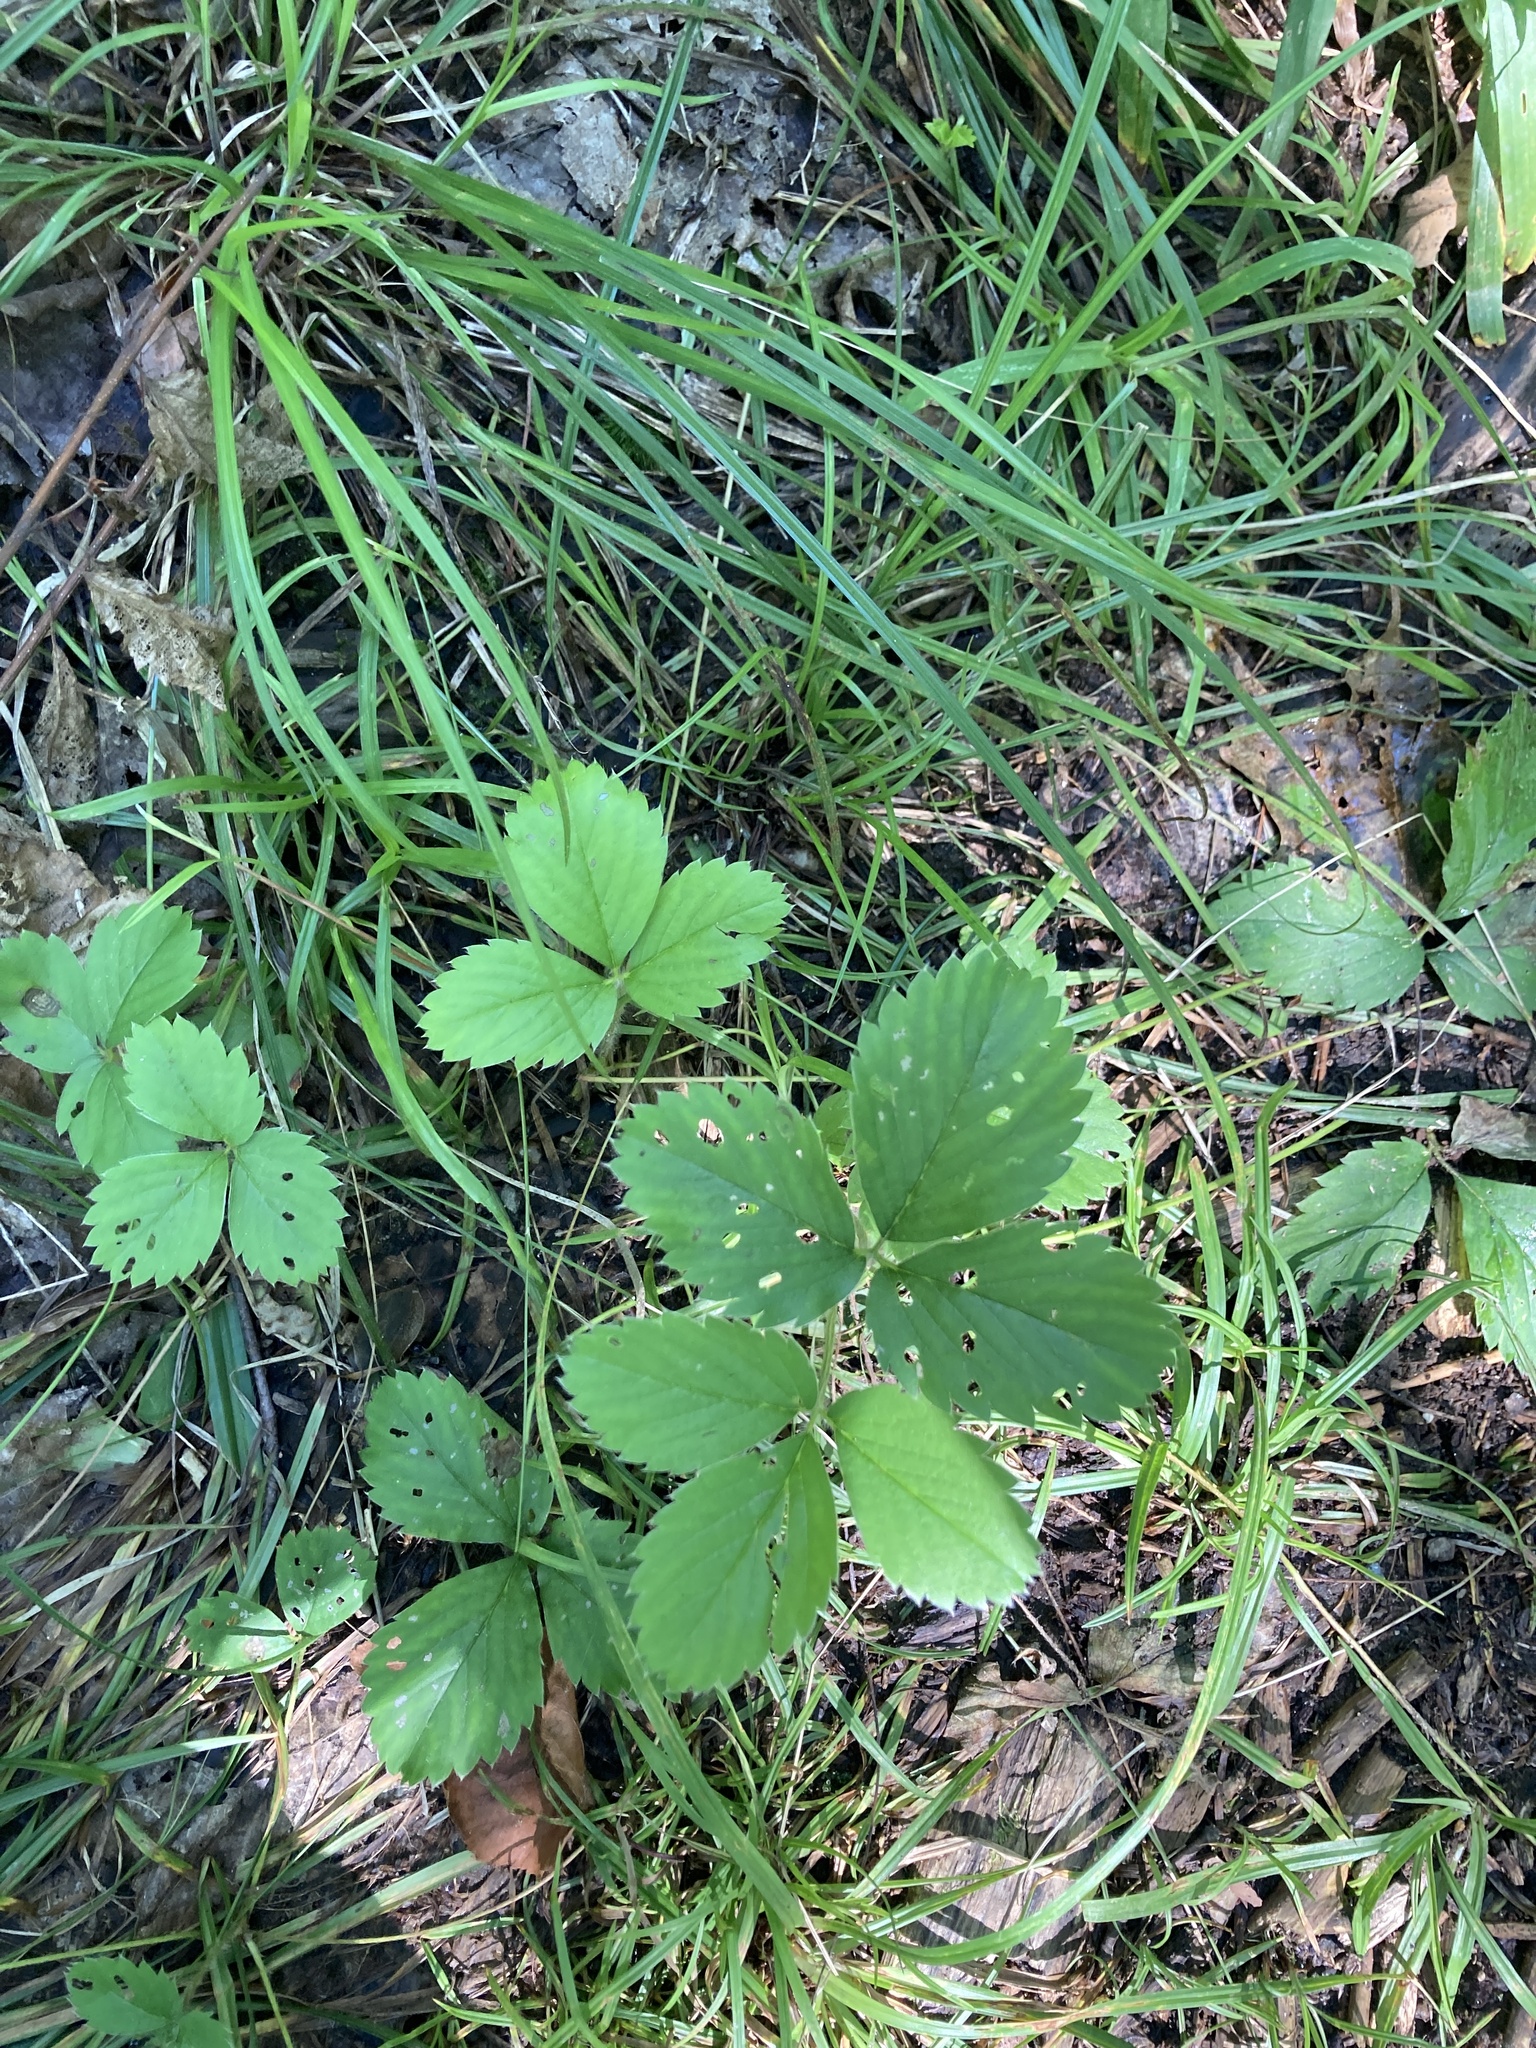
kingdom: Plantae
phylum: Tracheophyta
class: Magnoliopsida
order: Rosales
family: Rosaceae
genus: Fragaria
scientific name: Fragaria virginiana
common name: Thickleaved wild strawberry
